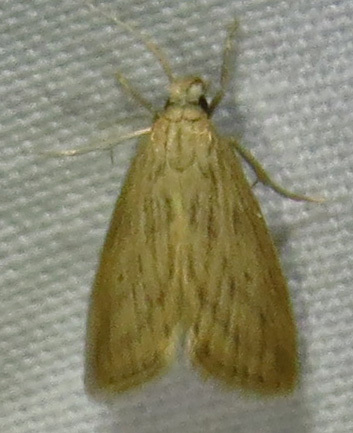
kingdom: Animalia
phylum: Arthropoda
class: Insecta
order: Lepidoptera
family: Crambidae
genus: Diatraea
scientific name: Diatraea lisetta
